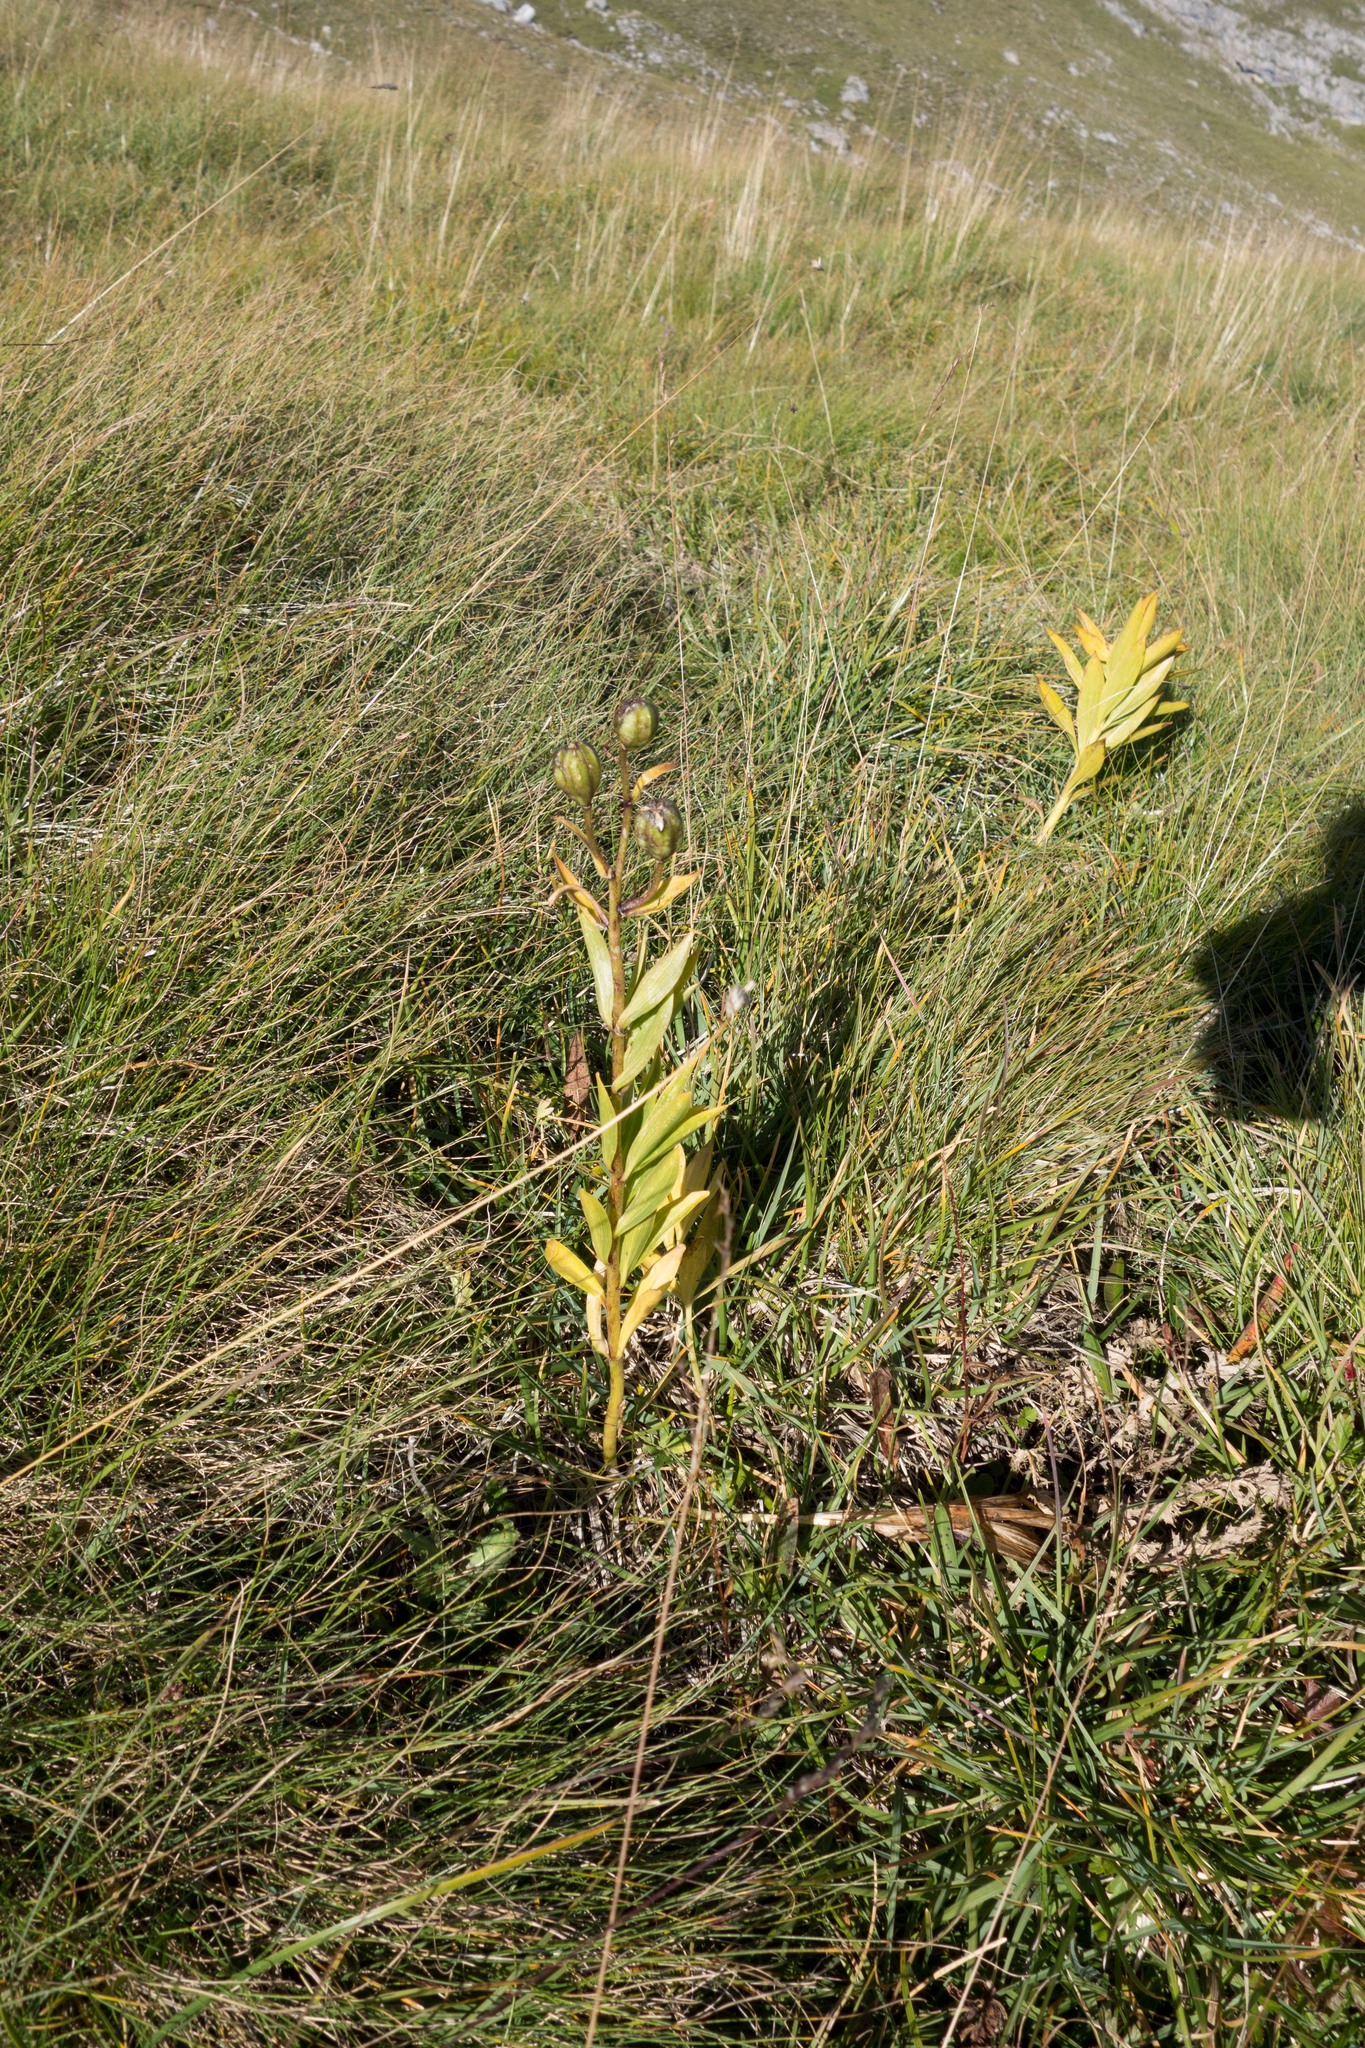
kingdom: Plantae
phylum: Tracheophyta
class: Liliopsida
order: Liliales
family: Liliaceae
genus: Lilium
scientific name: Lilium martagon
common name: Martagon lily
